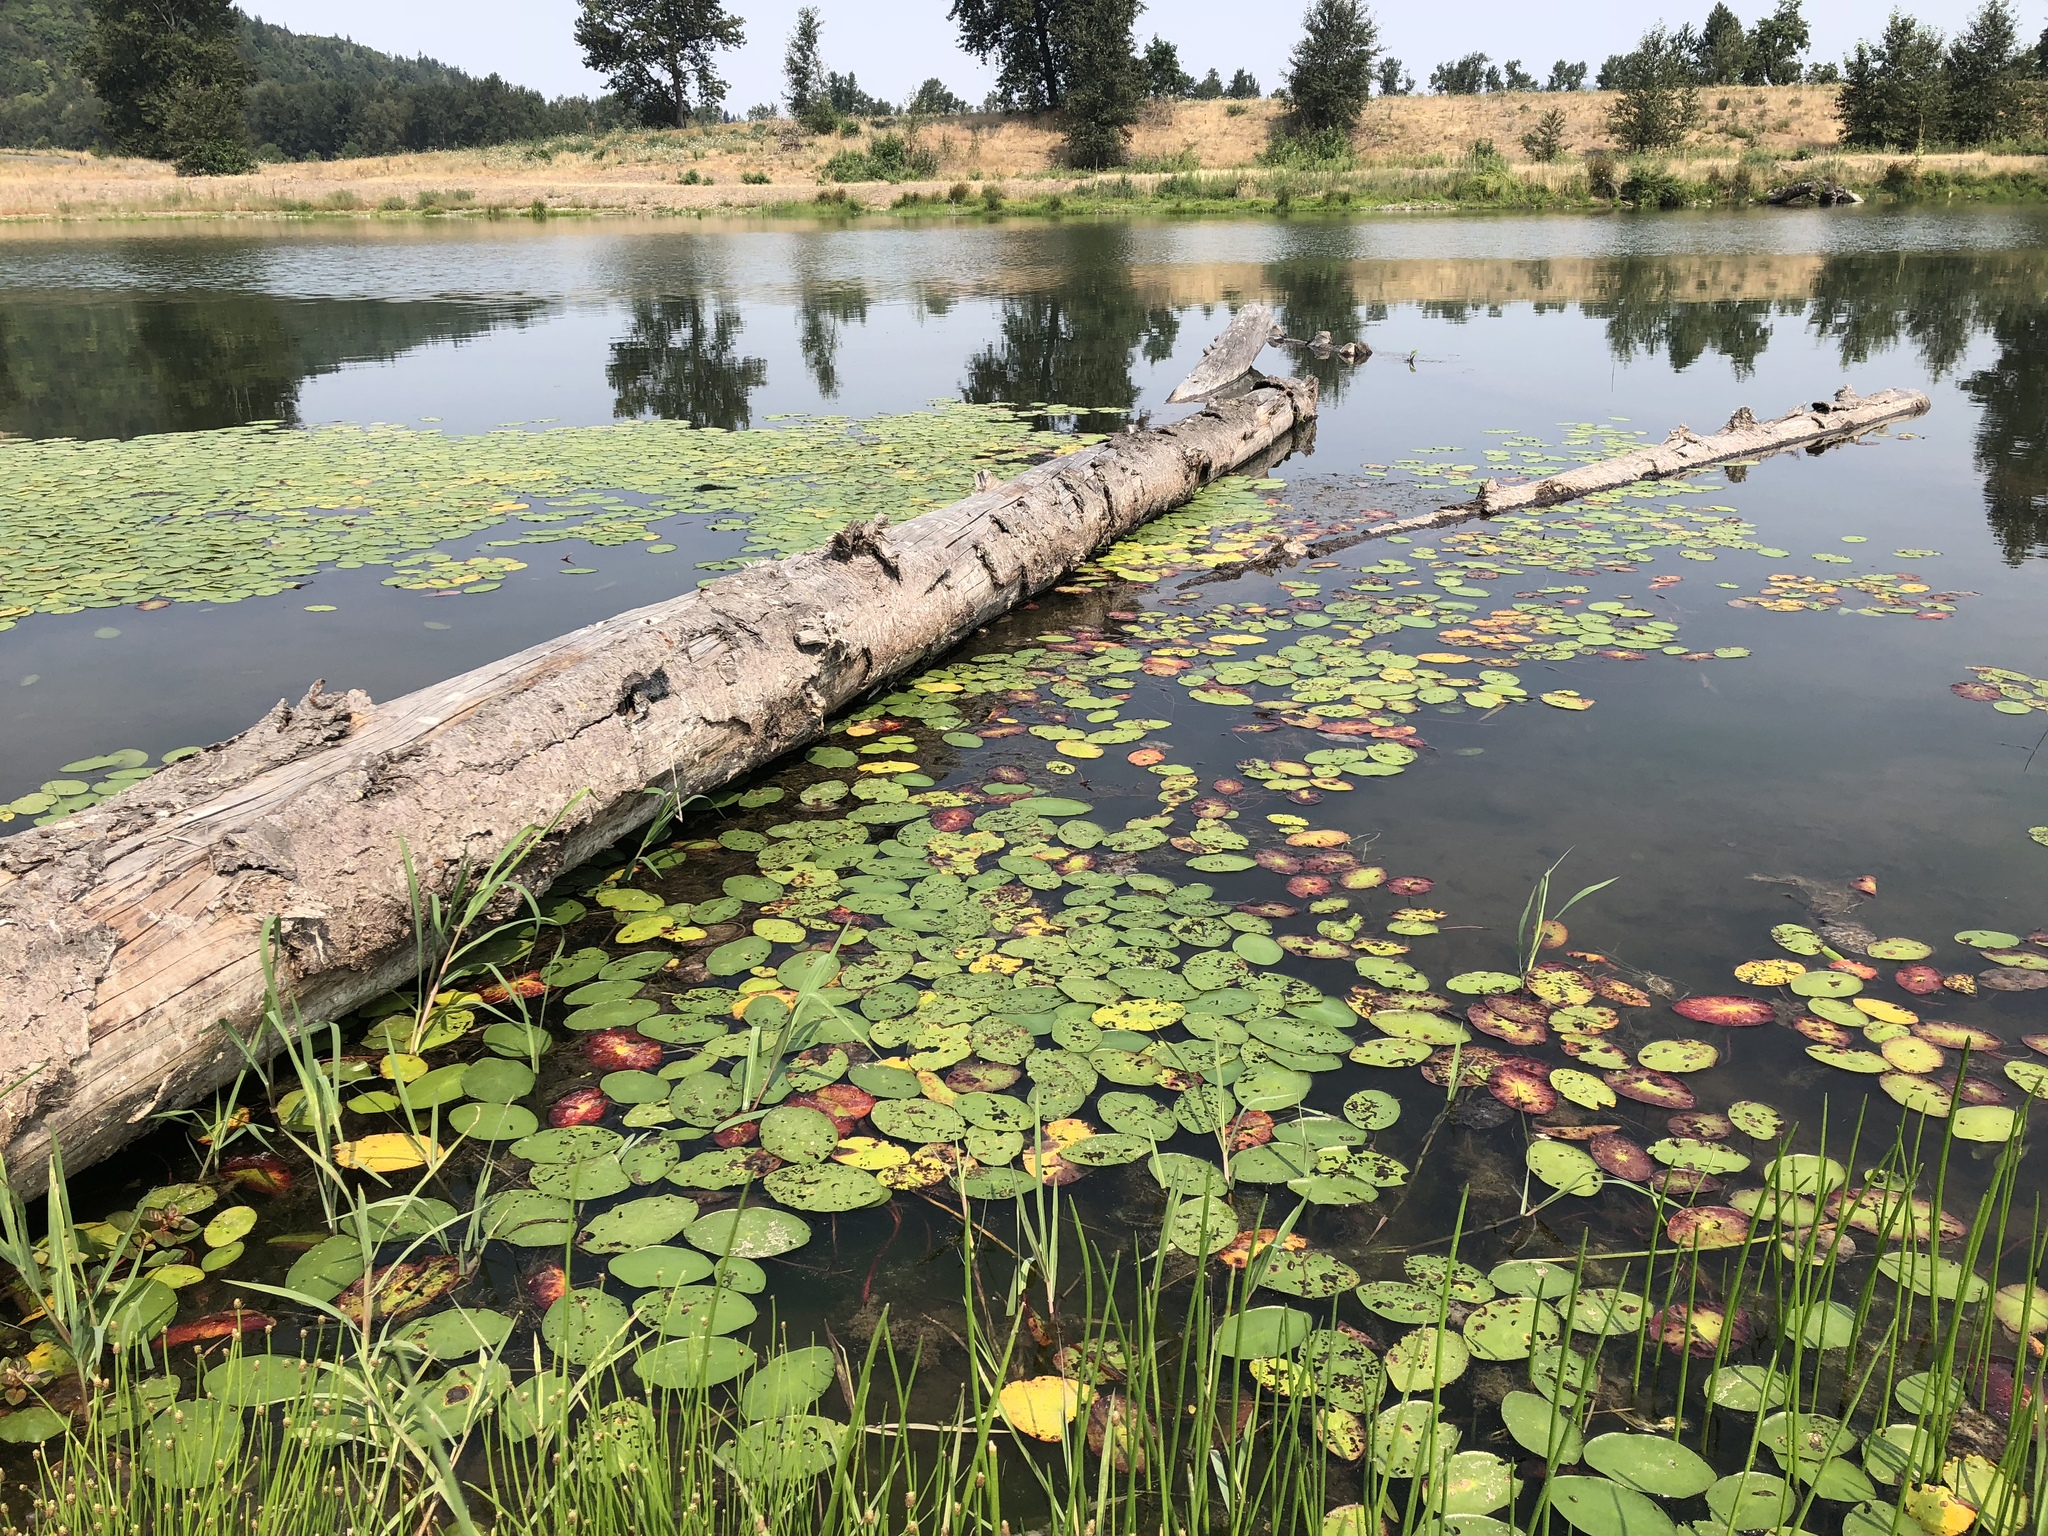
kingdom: Plantae
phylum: Tracheophyta
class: Magnoliopsida
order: Nymphaeales
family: Cabombaceae
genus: Brasenia
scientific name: Brasenia schreberi
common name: Water-shield
